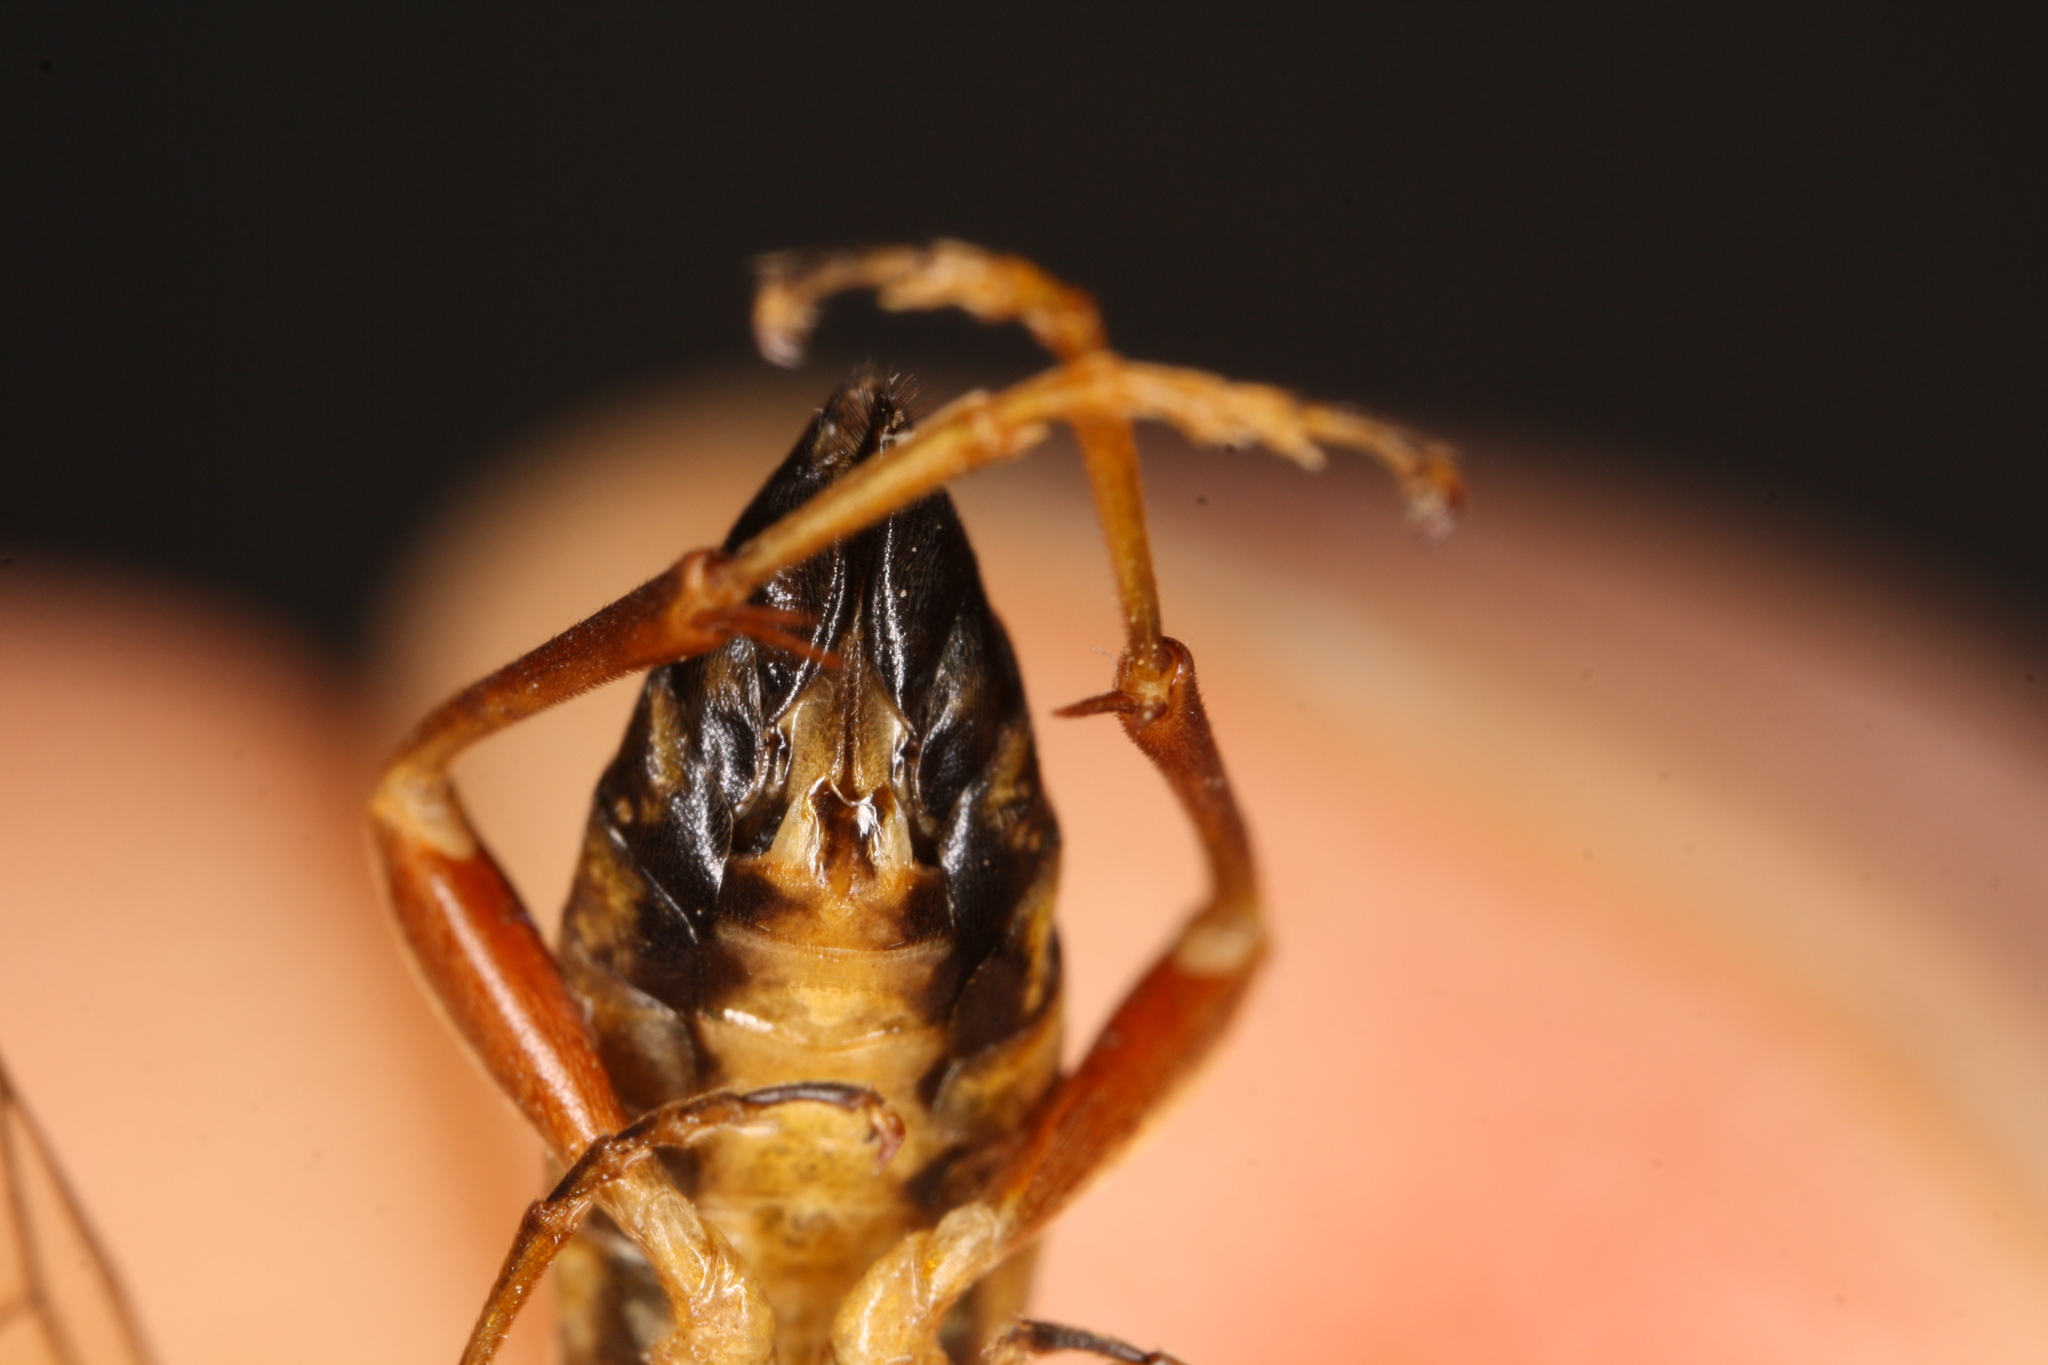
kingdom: Animalia
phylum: Arthropoda
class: Insecta
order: Hymenoptera
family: Tenthredinidae
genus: Tenthredopsis
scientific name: Tenthredopsis litterata
